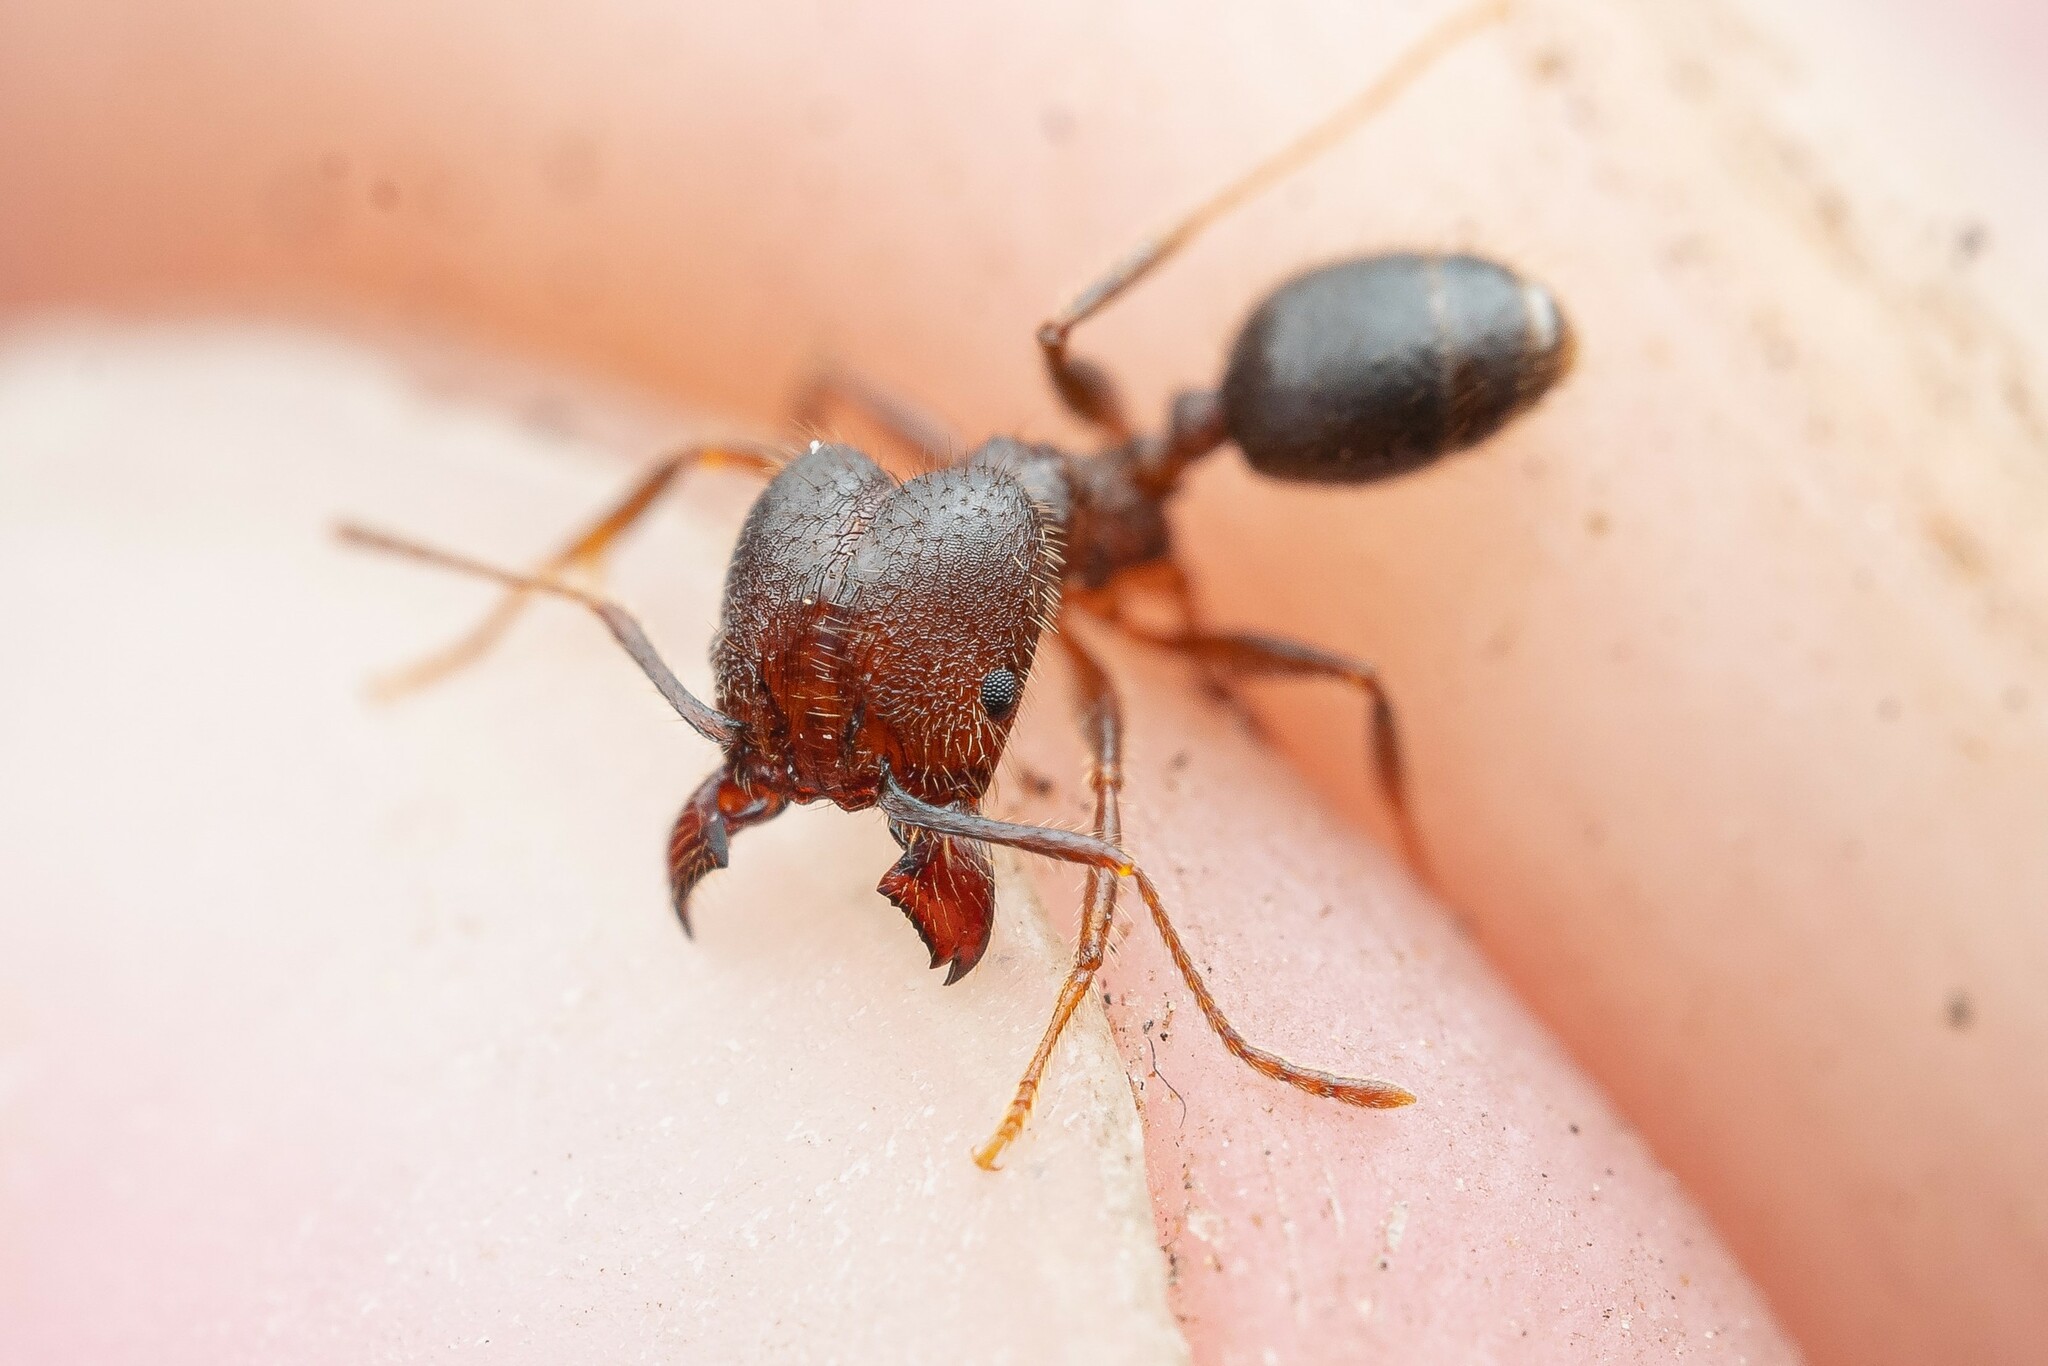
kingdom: Animalia
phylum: Arthropoda
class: Insecta
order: Hymenoptera
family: Formicidae
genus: Pheidole
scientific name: Pheidole
